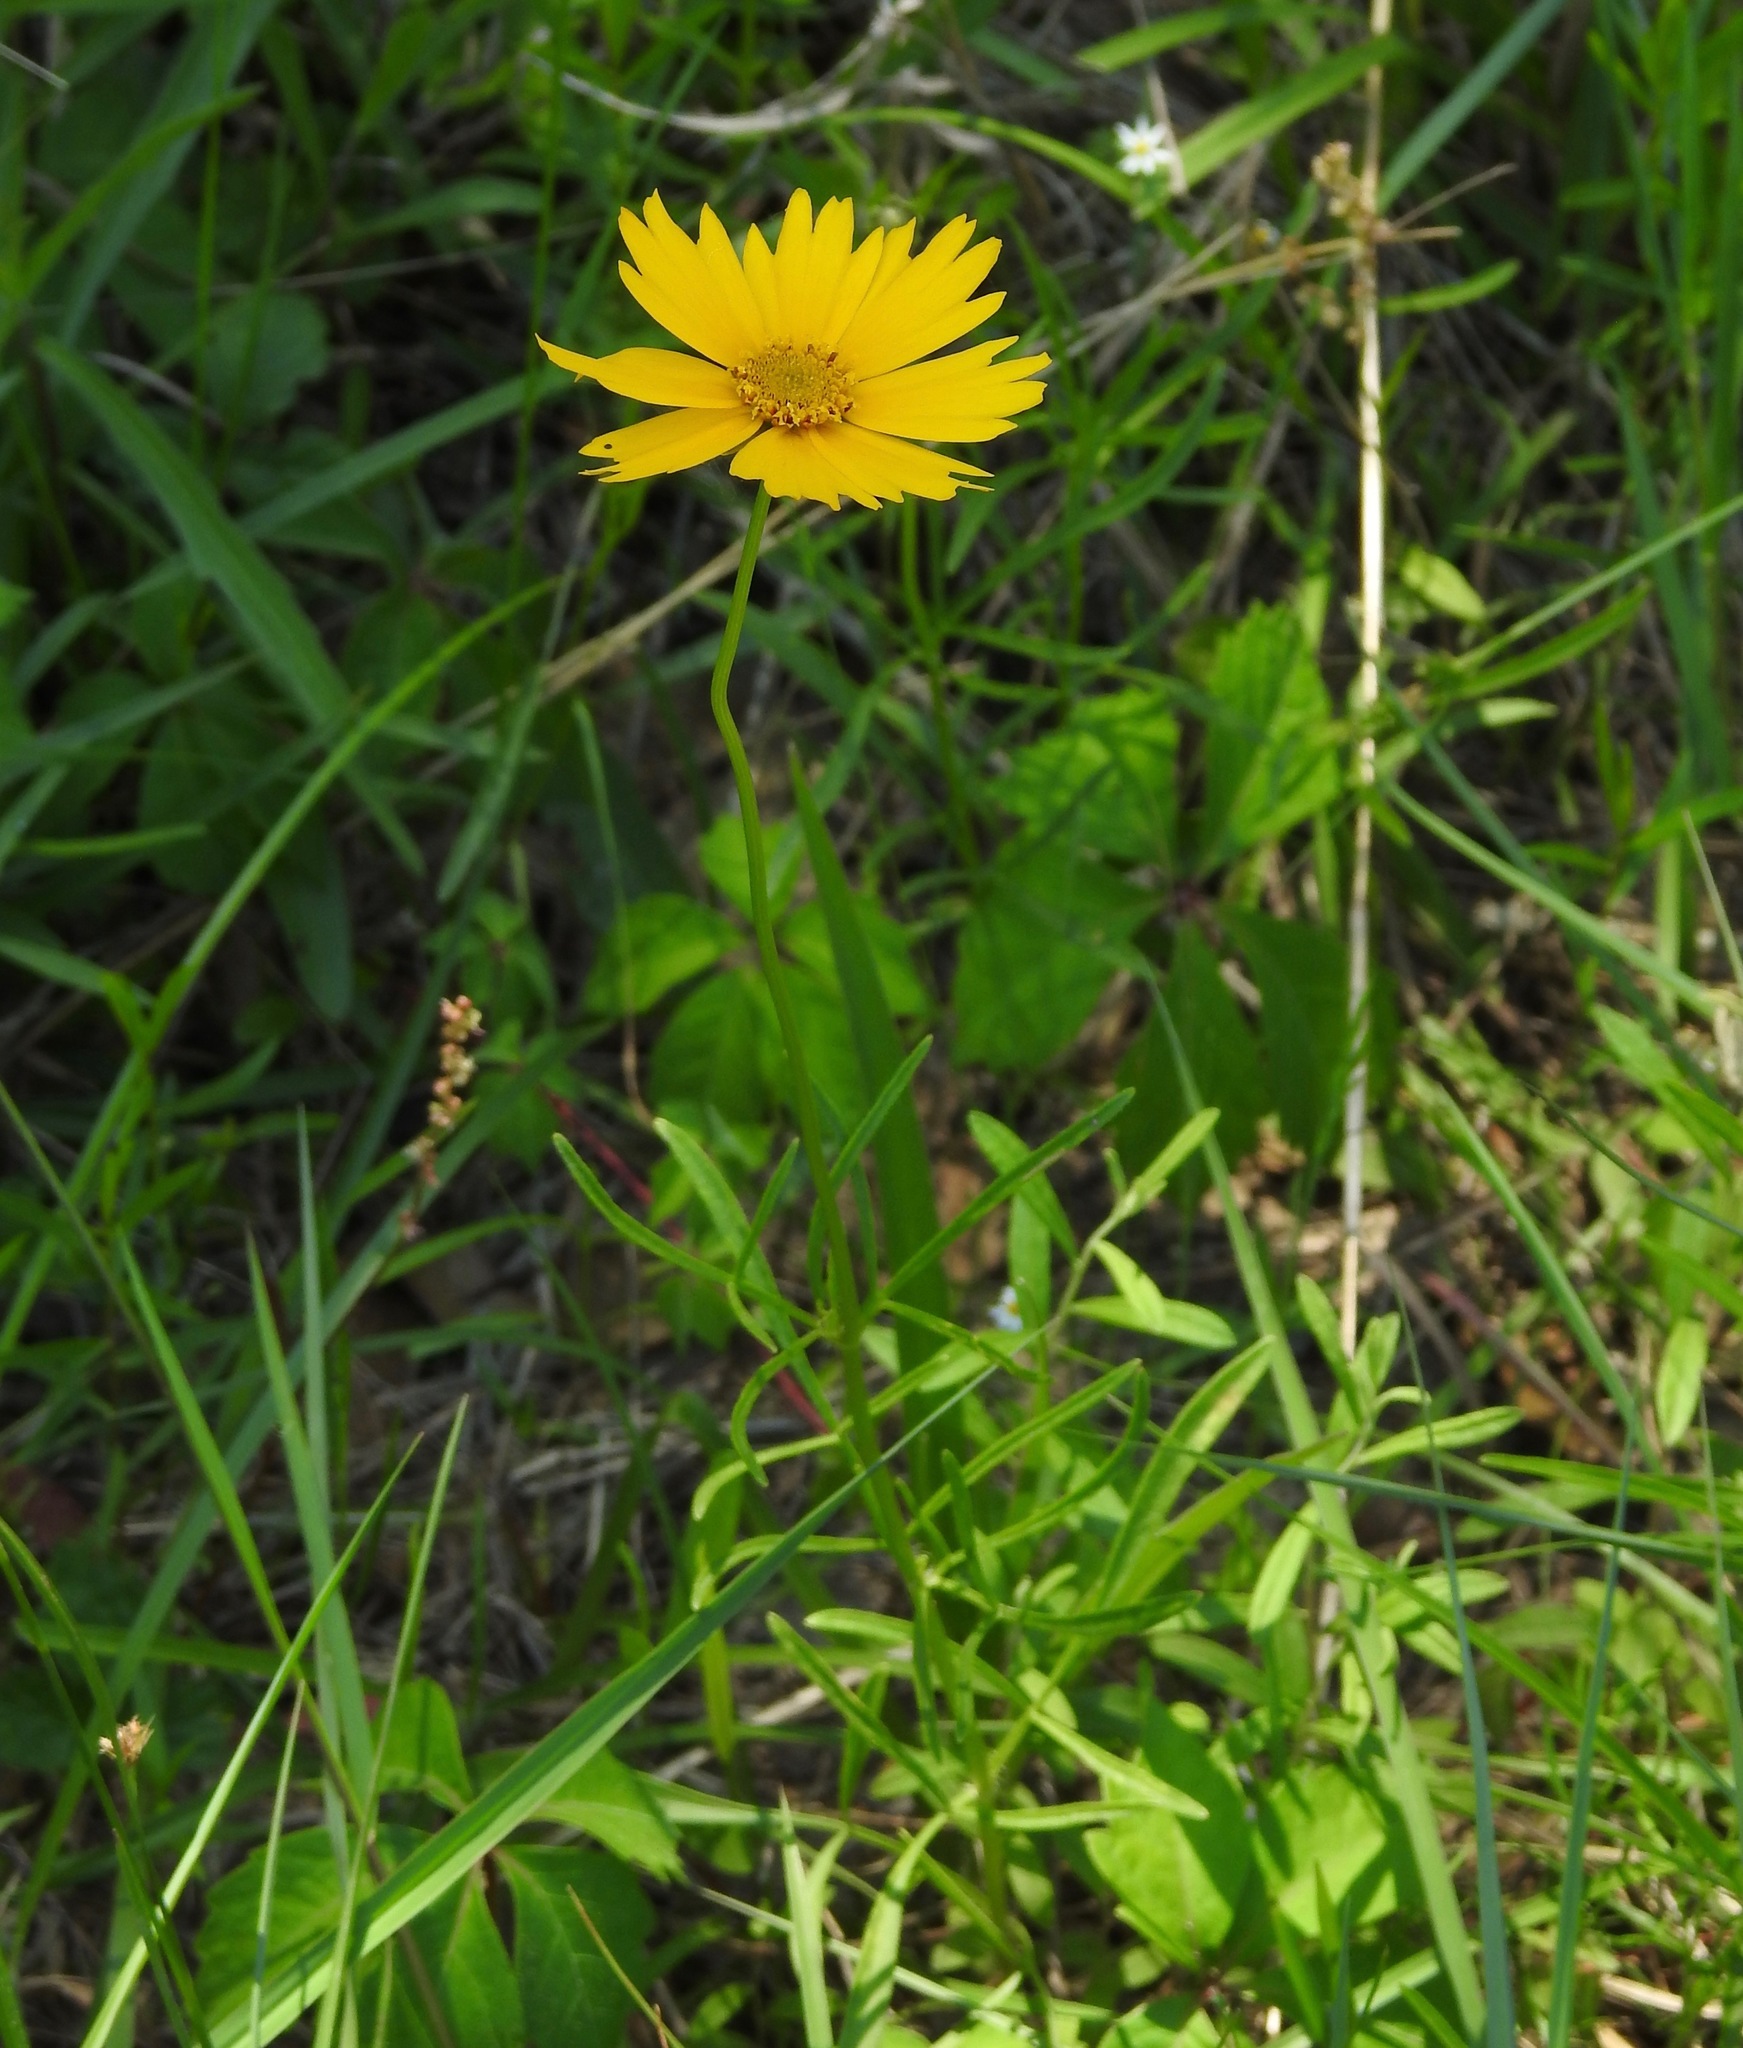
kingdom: Plantae
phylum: Tracheophyta
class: Magnoliopsida
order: Asterales
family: Asteraceae
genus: Coreopsis
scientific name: Coreopsis lanceolata
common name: Garden coreopsis
